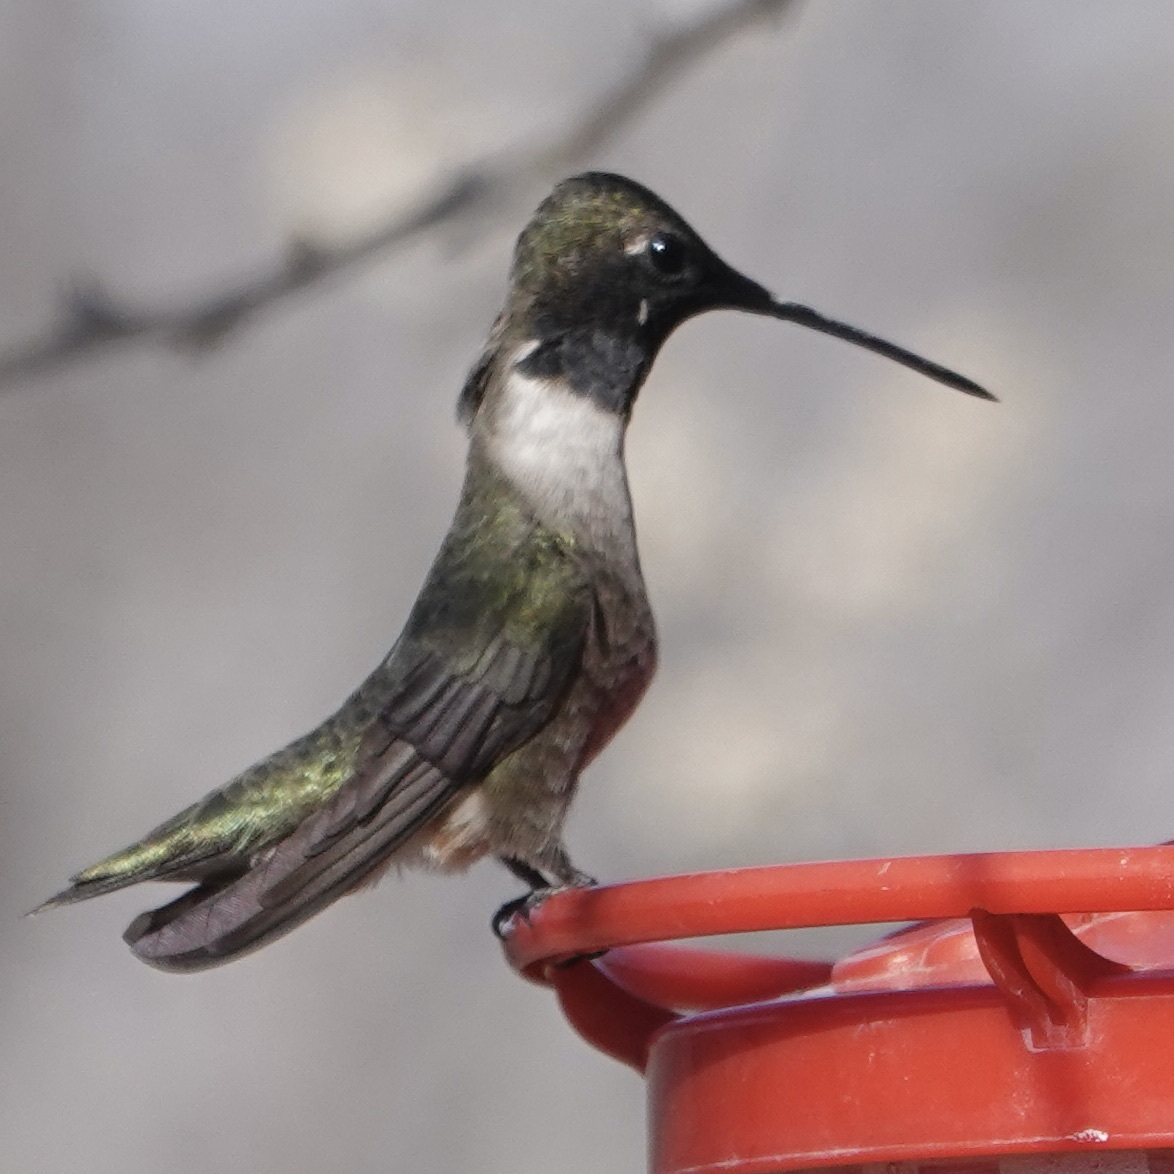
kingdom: Animalia
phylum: Chordata
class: Aves
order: Apodiformes
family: Trochilidae
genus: Archilochus
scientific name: Archilochus alexandri
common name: Black-chinned hummingbird
